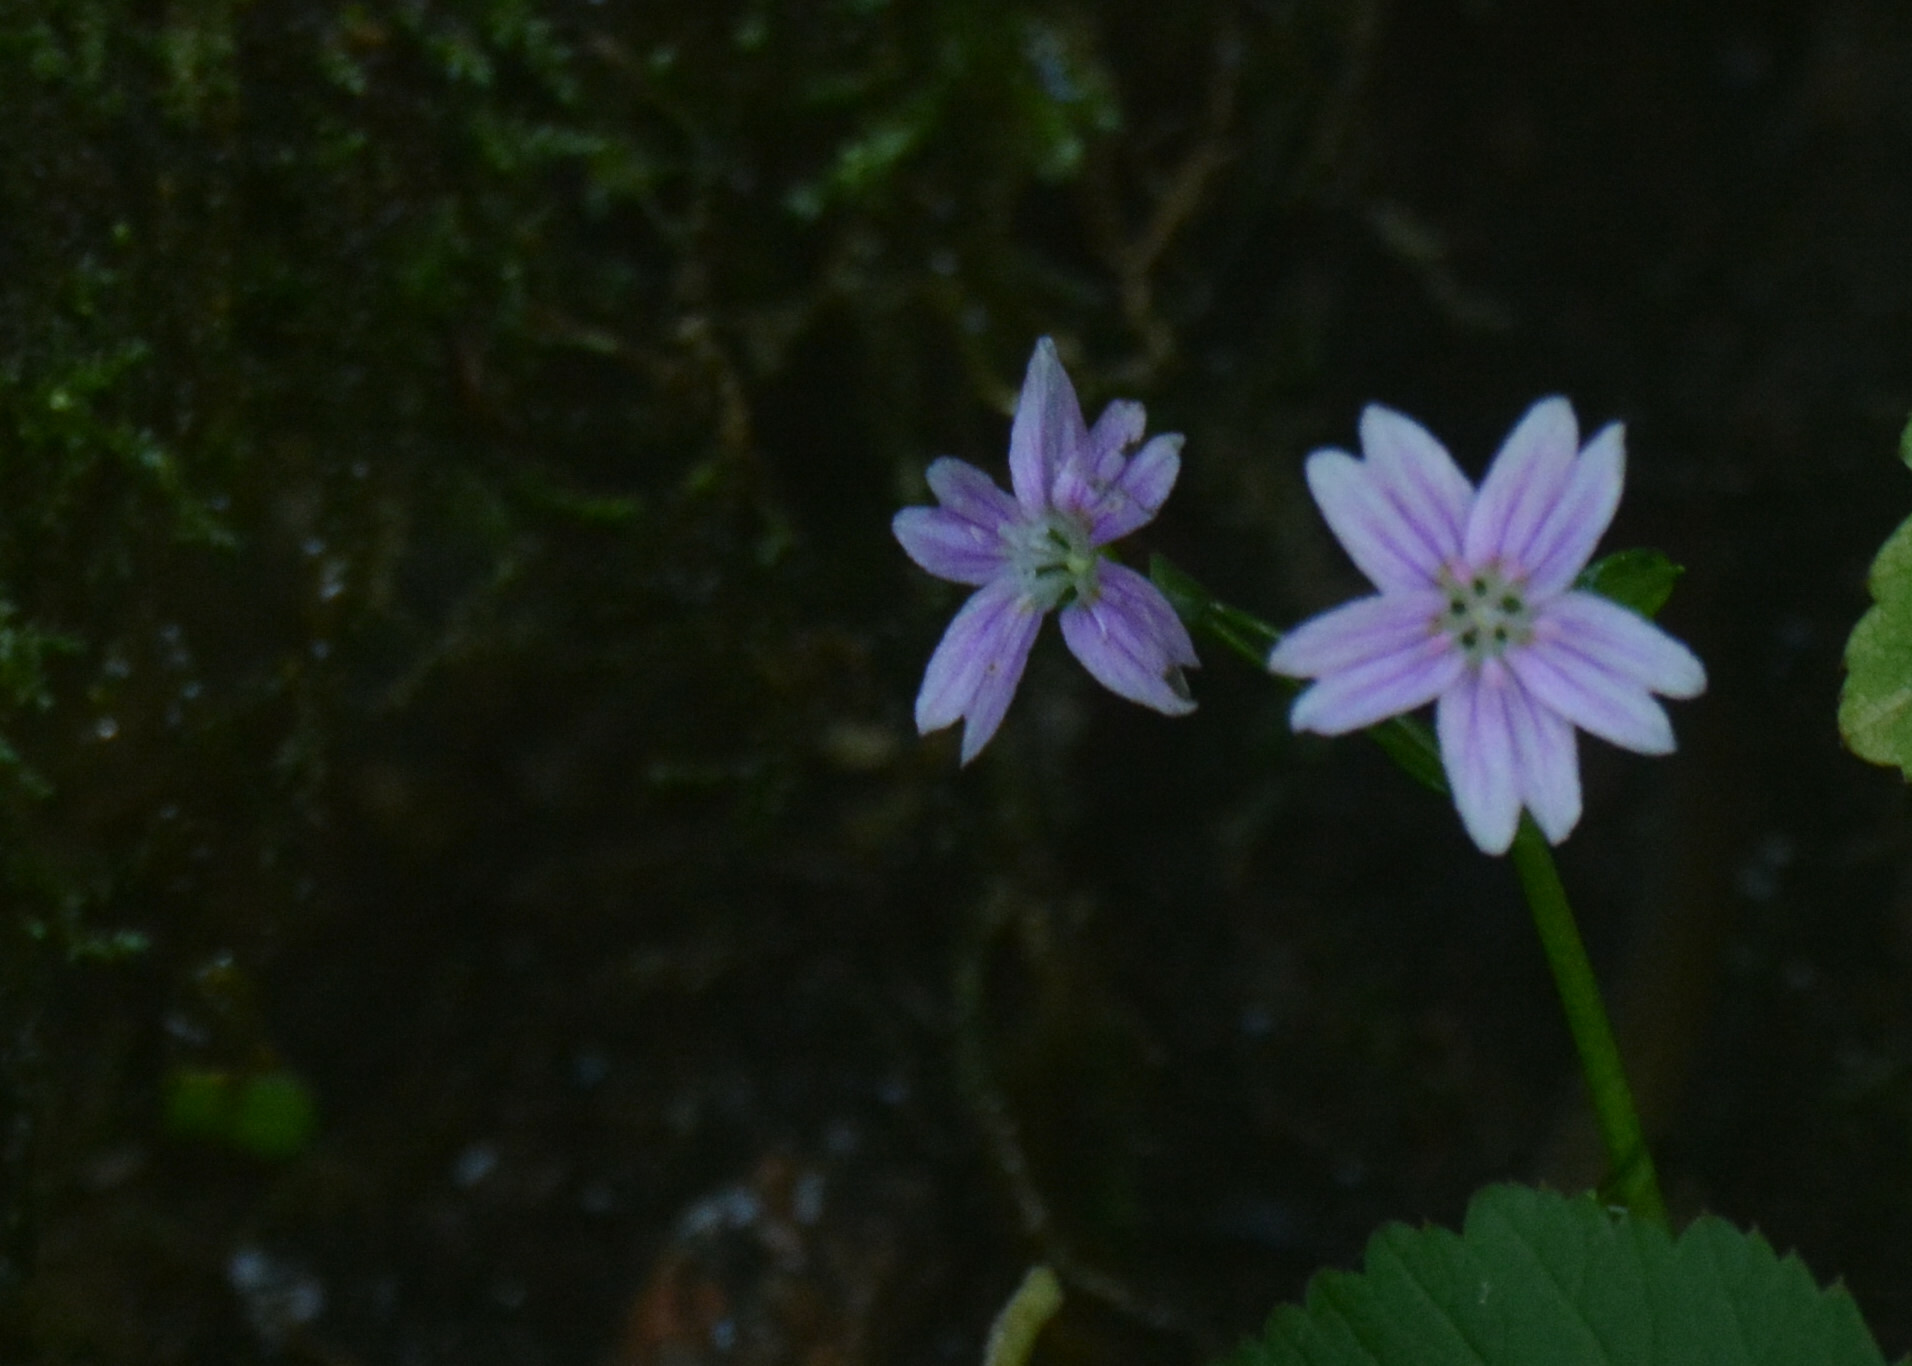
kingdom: Plantae
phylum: Tracheophyta
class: Magnoliopsida
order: Caryophyllales
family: Montiaceae
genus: Claytonia
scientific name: Claytonia sibirica
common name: Pink purslane
